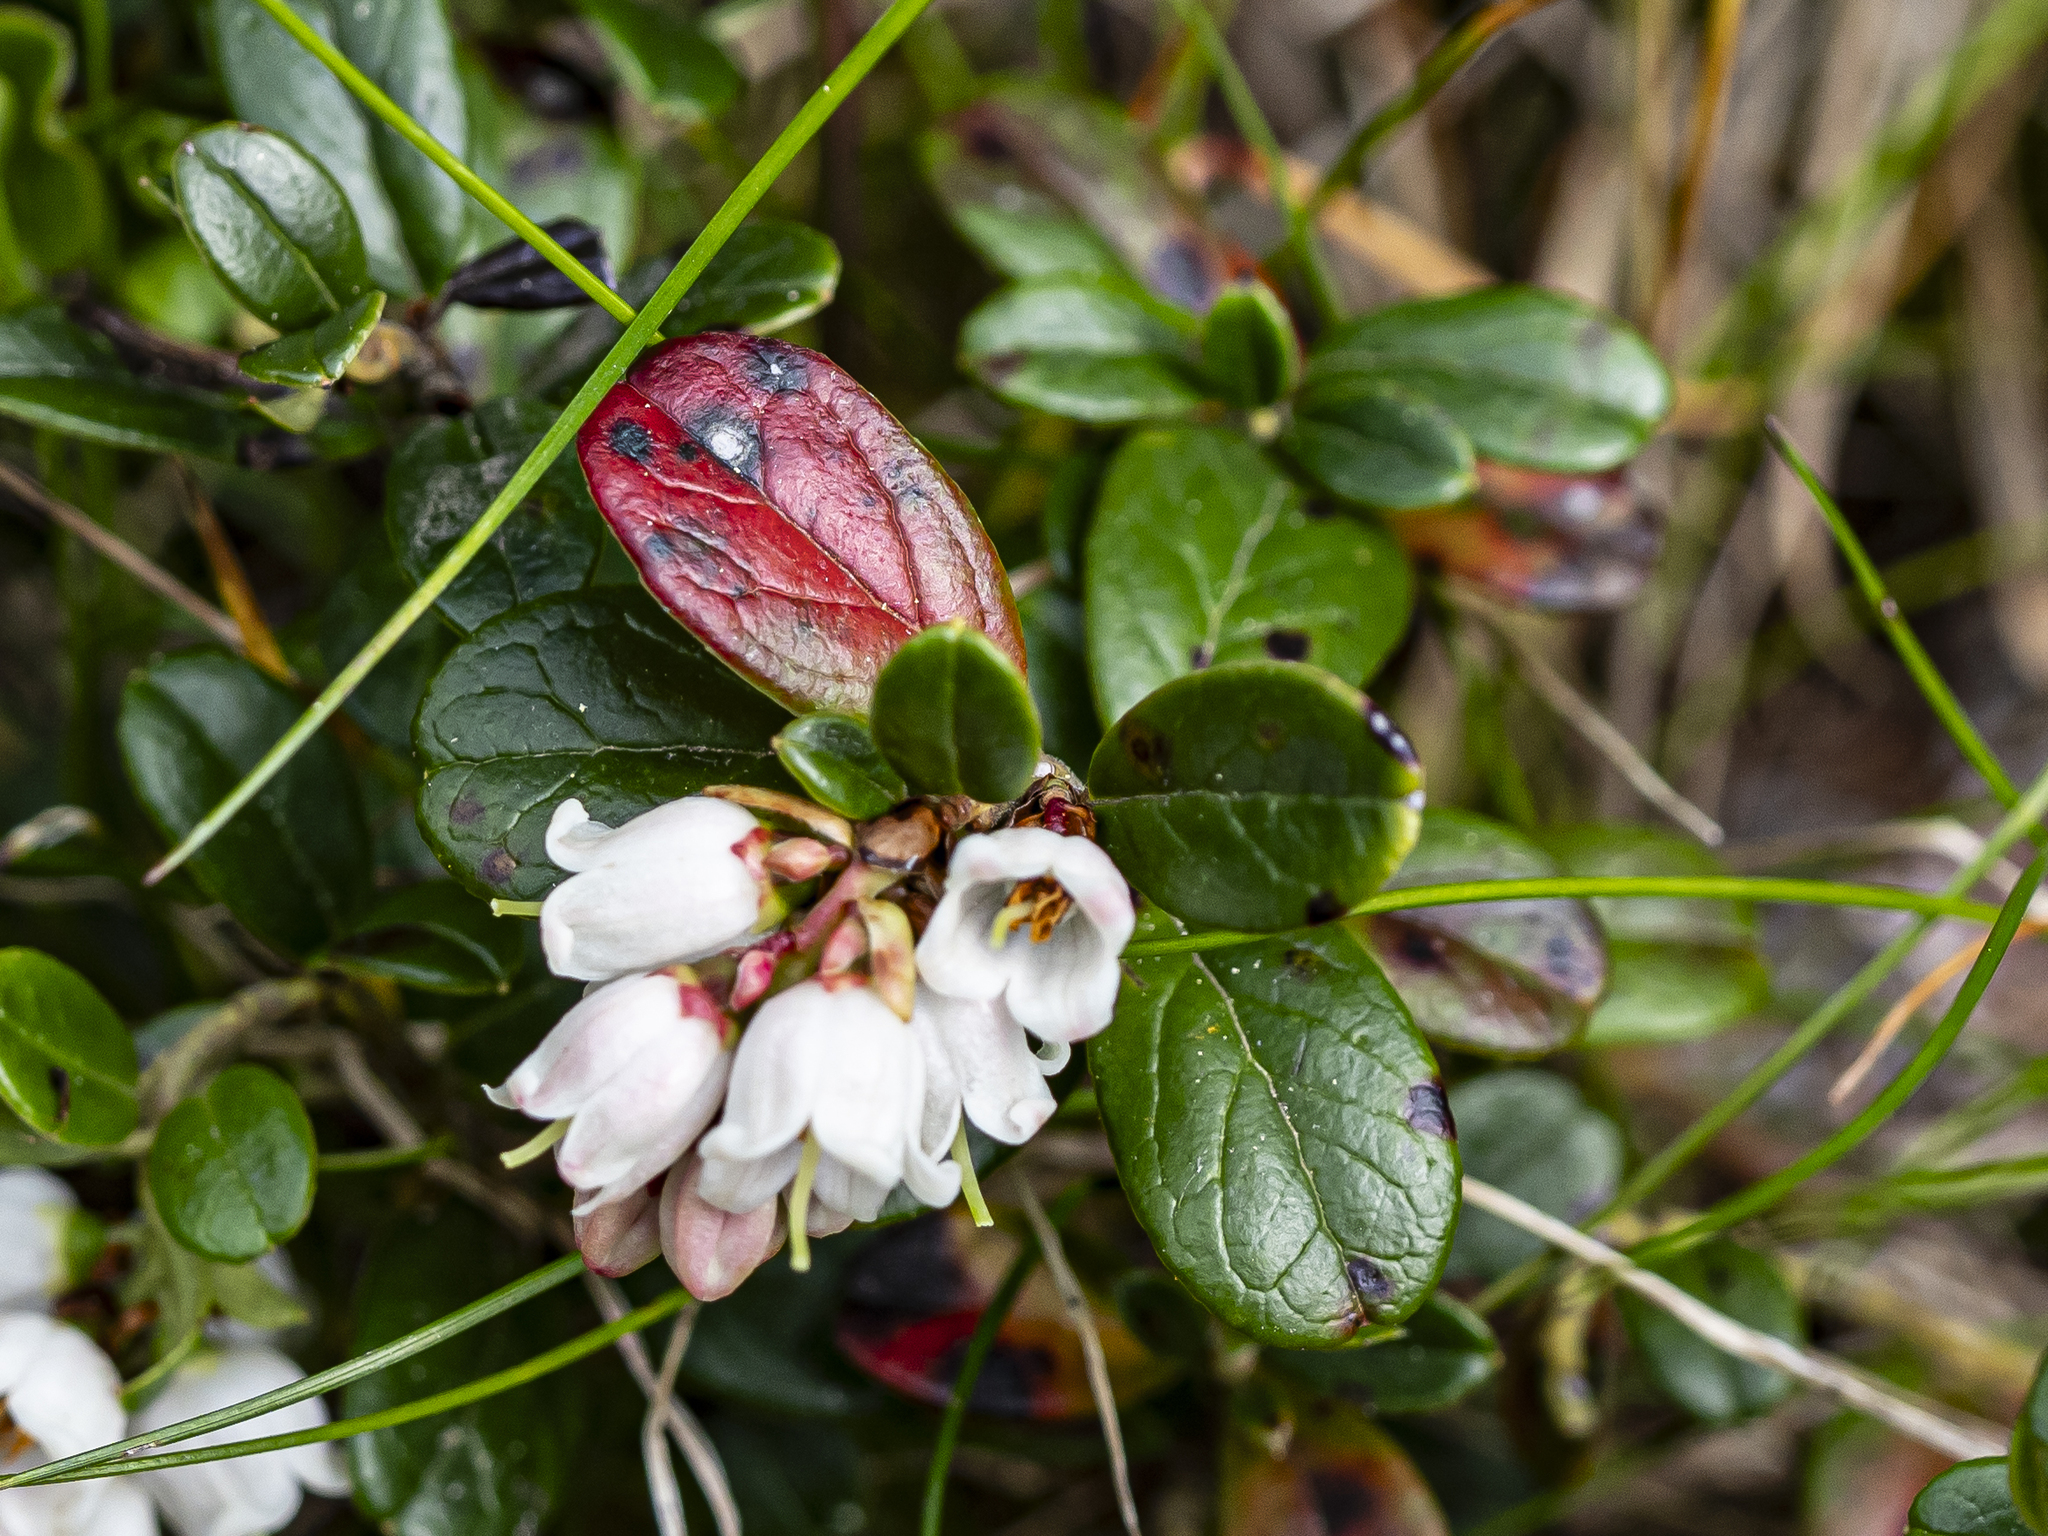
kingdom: Plantae
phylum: Tracheophyta
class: Magnoliopsida
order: Ericales
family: Ericaceae
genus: Vaccinium
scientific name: Vaccinium vitis-idaea
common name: Cowberry
